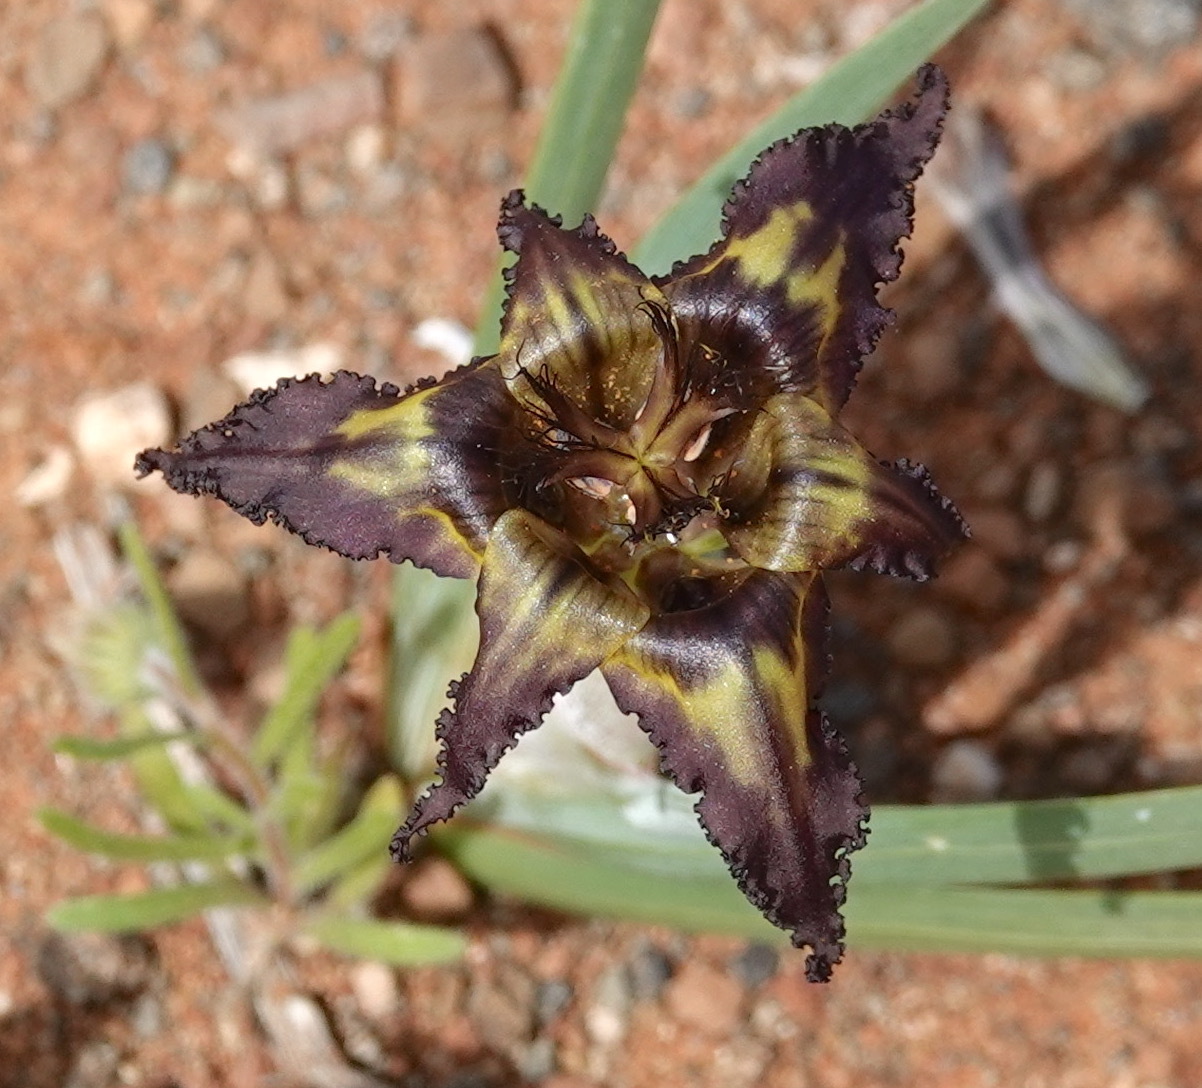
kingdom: Plantae
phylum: Tracheophyta
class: Liliopsida
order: Asparagales
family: Iridaceae
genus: Ferraria
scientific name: Ferraria variabilis
